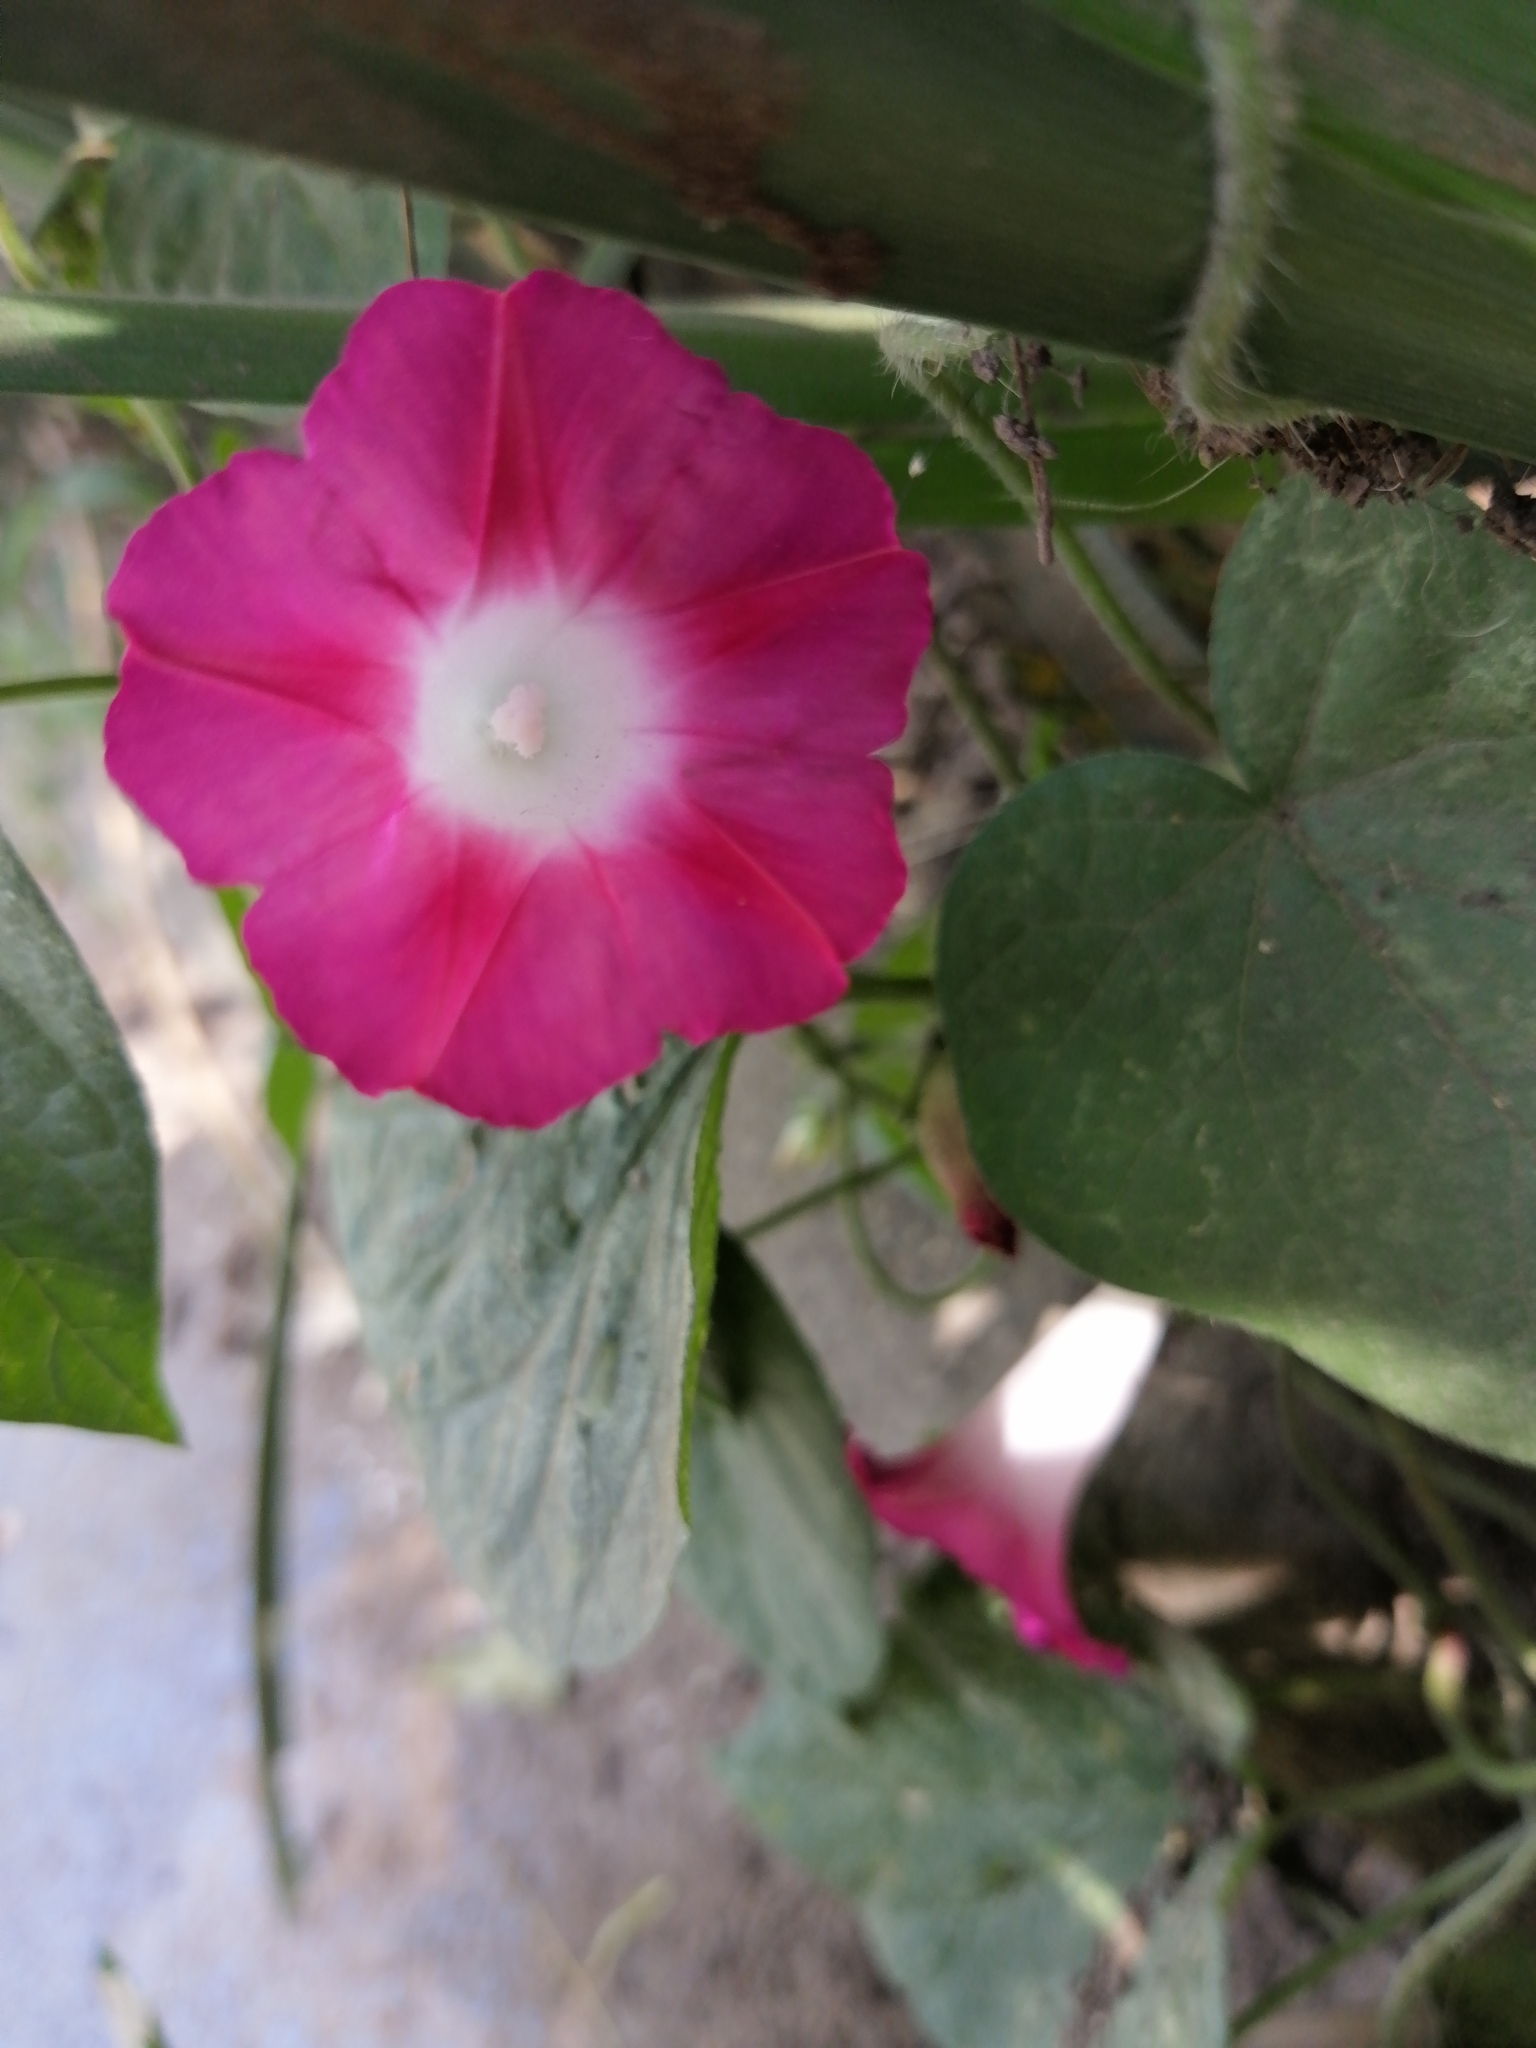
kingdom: Plantae
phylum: Tracheophyta
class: Magnoliopsida
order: Solanales
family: Convolvulaceae
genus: Ipomoea
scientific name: Ipomoea purpurea
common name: Common morning-glory
